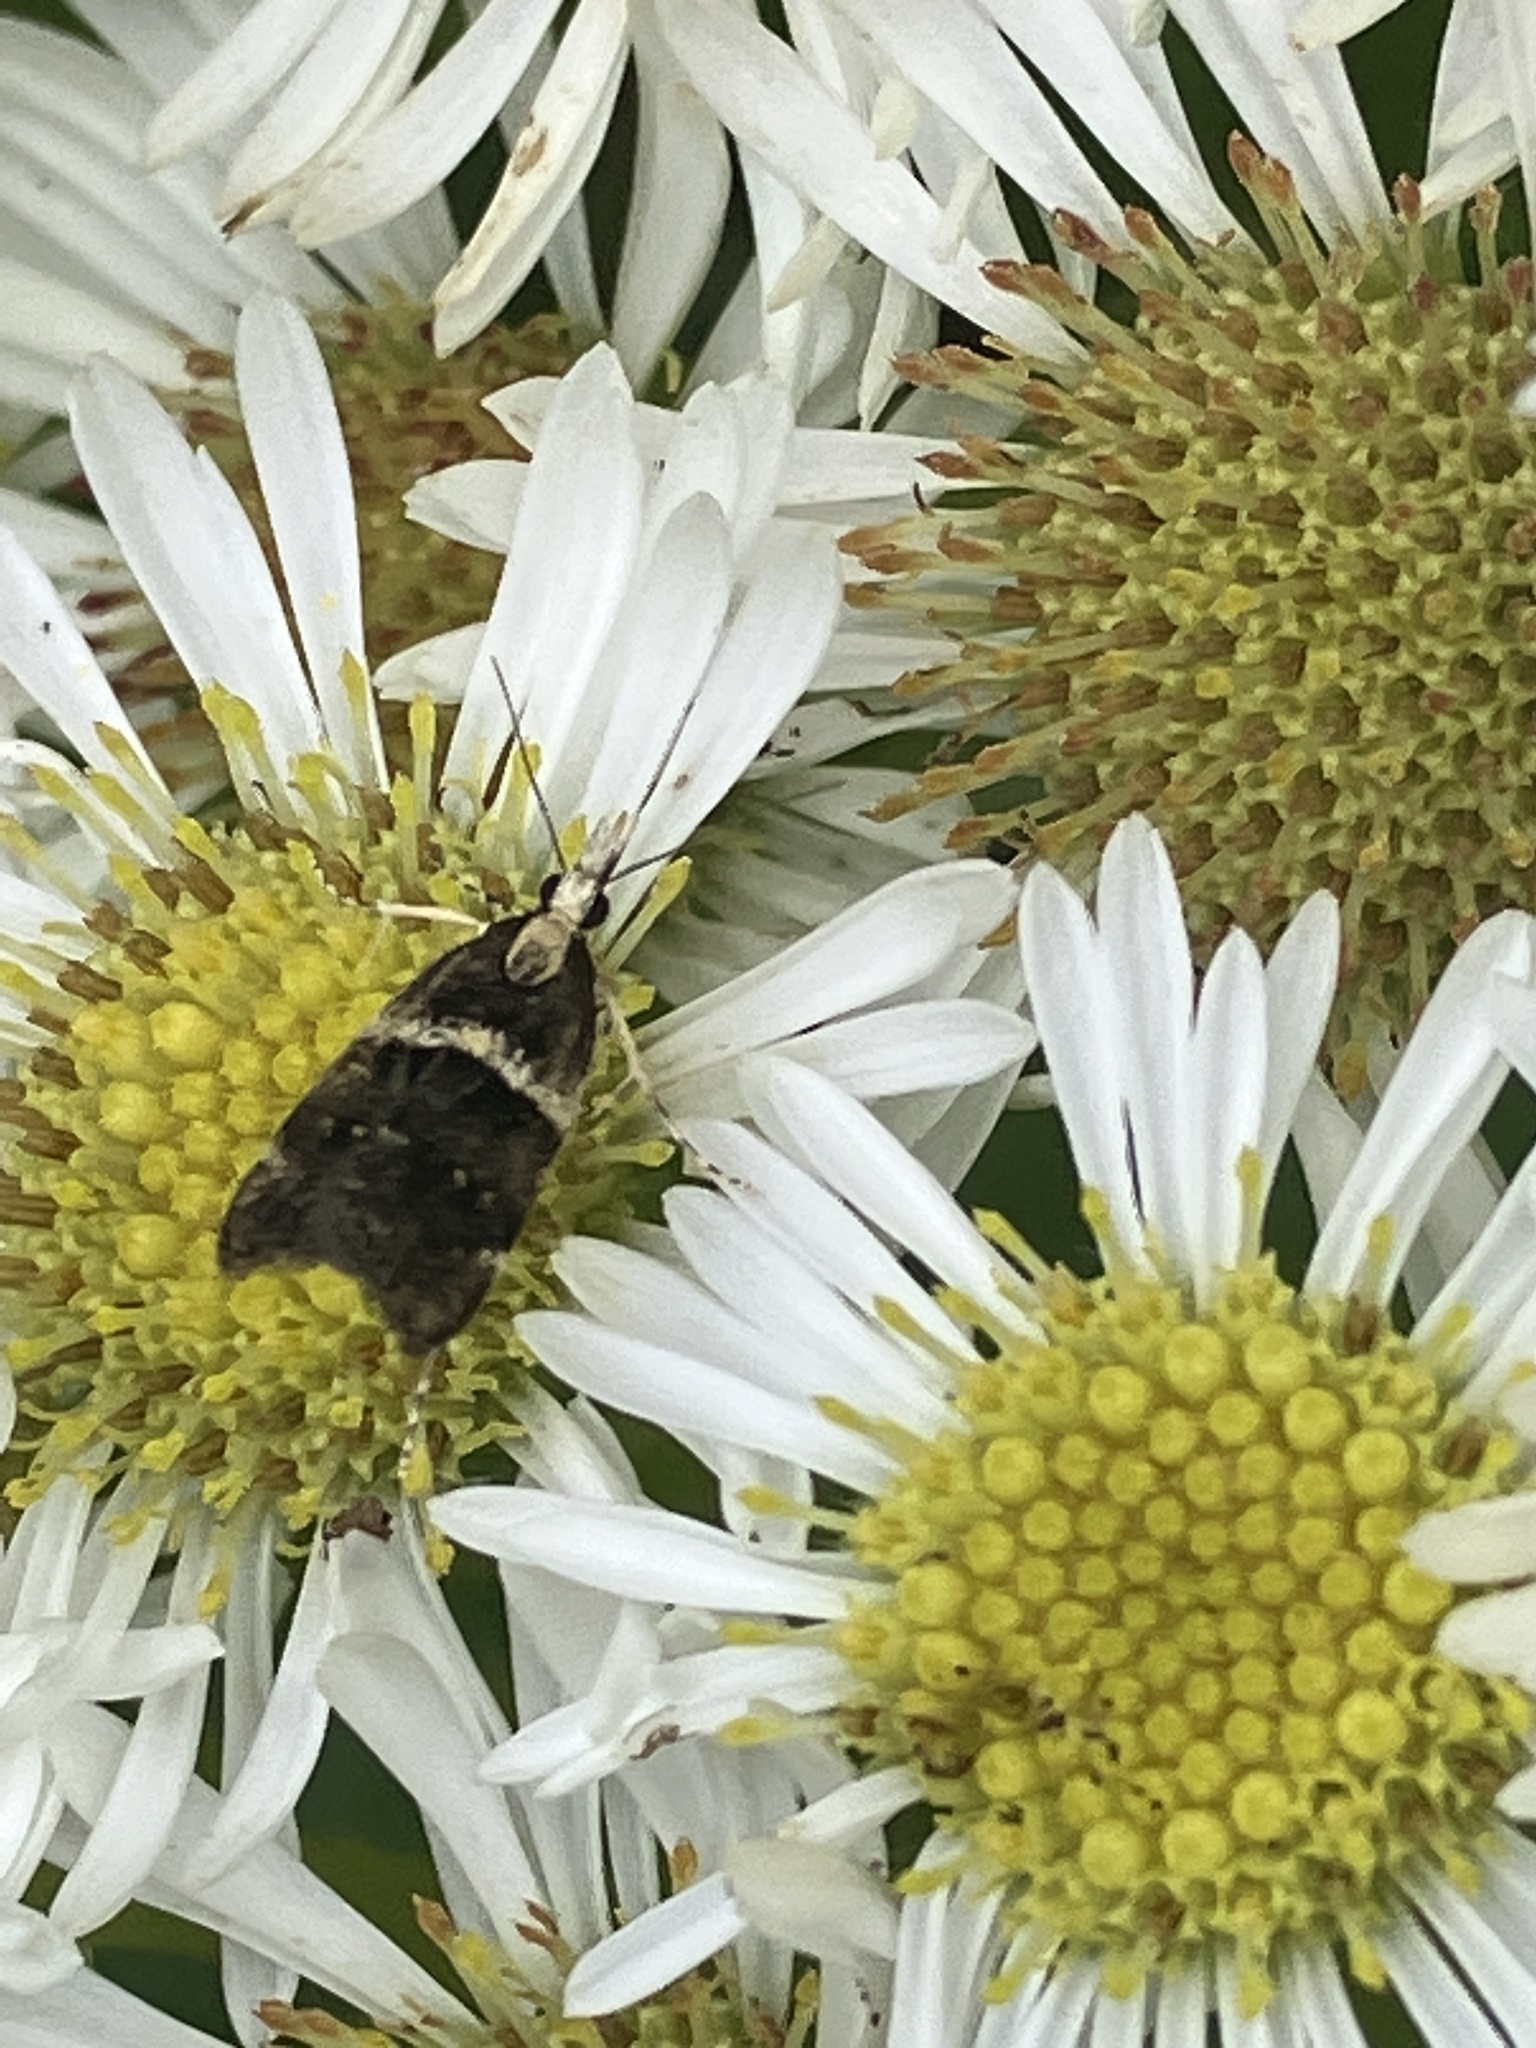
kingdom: Animalia
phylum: Arthropoda
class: Insecta
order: Lepidoptera
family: Crambidae
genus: Scoparia
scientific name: Scoparia transversalis
